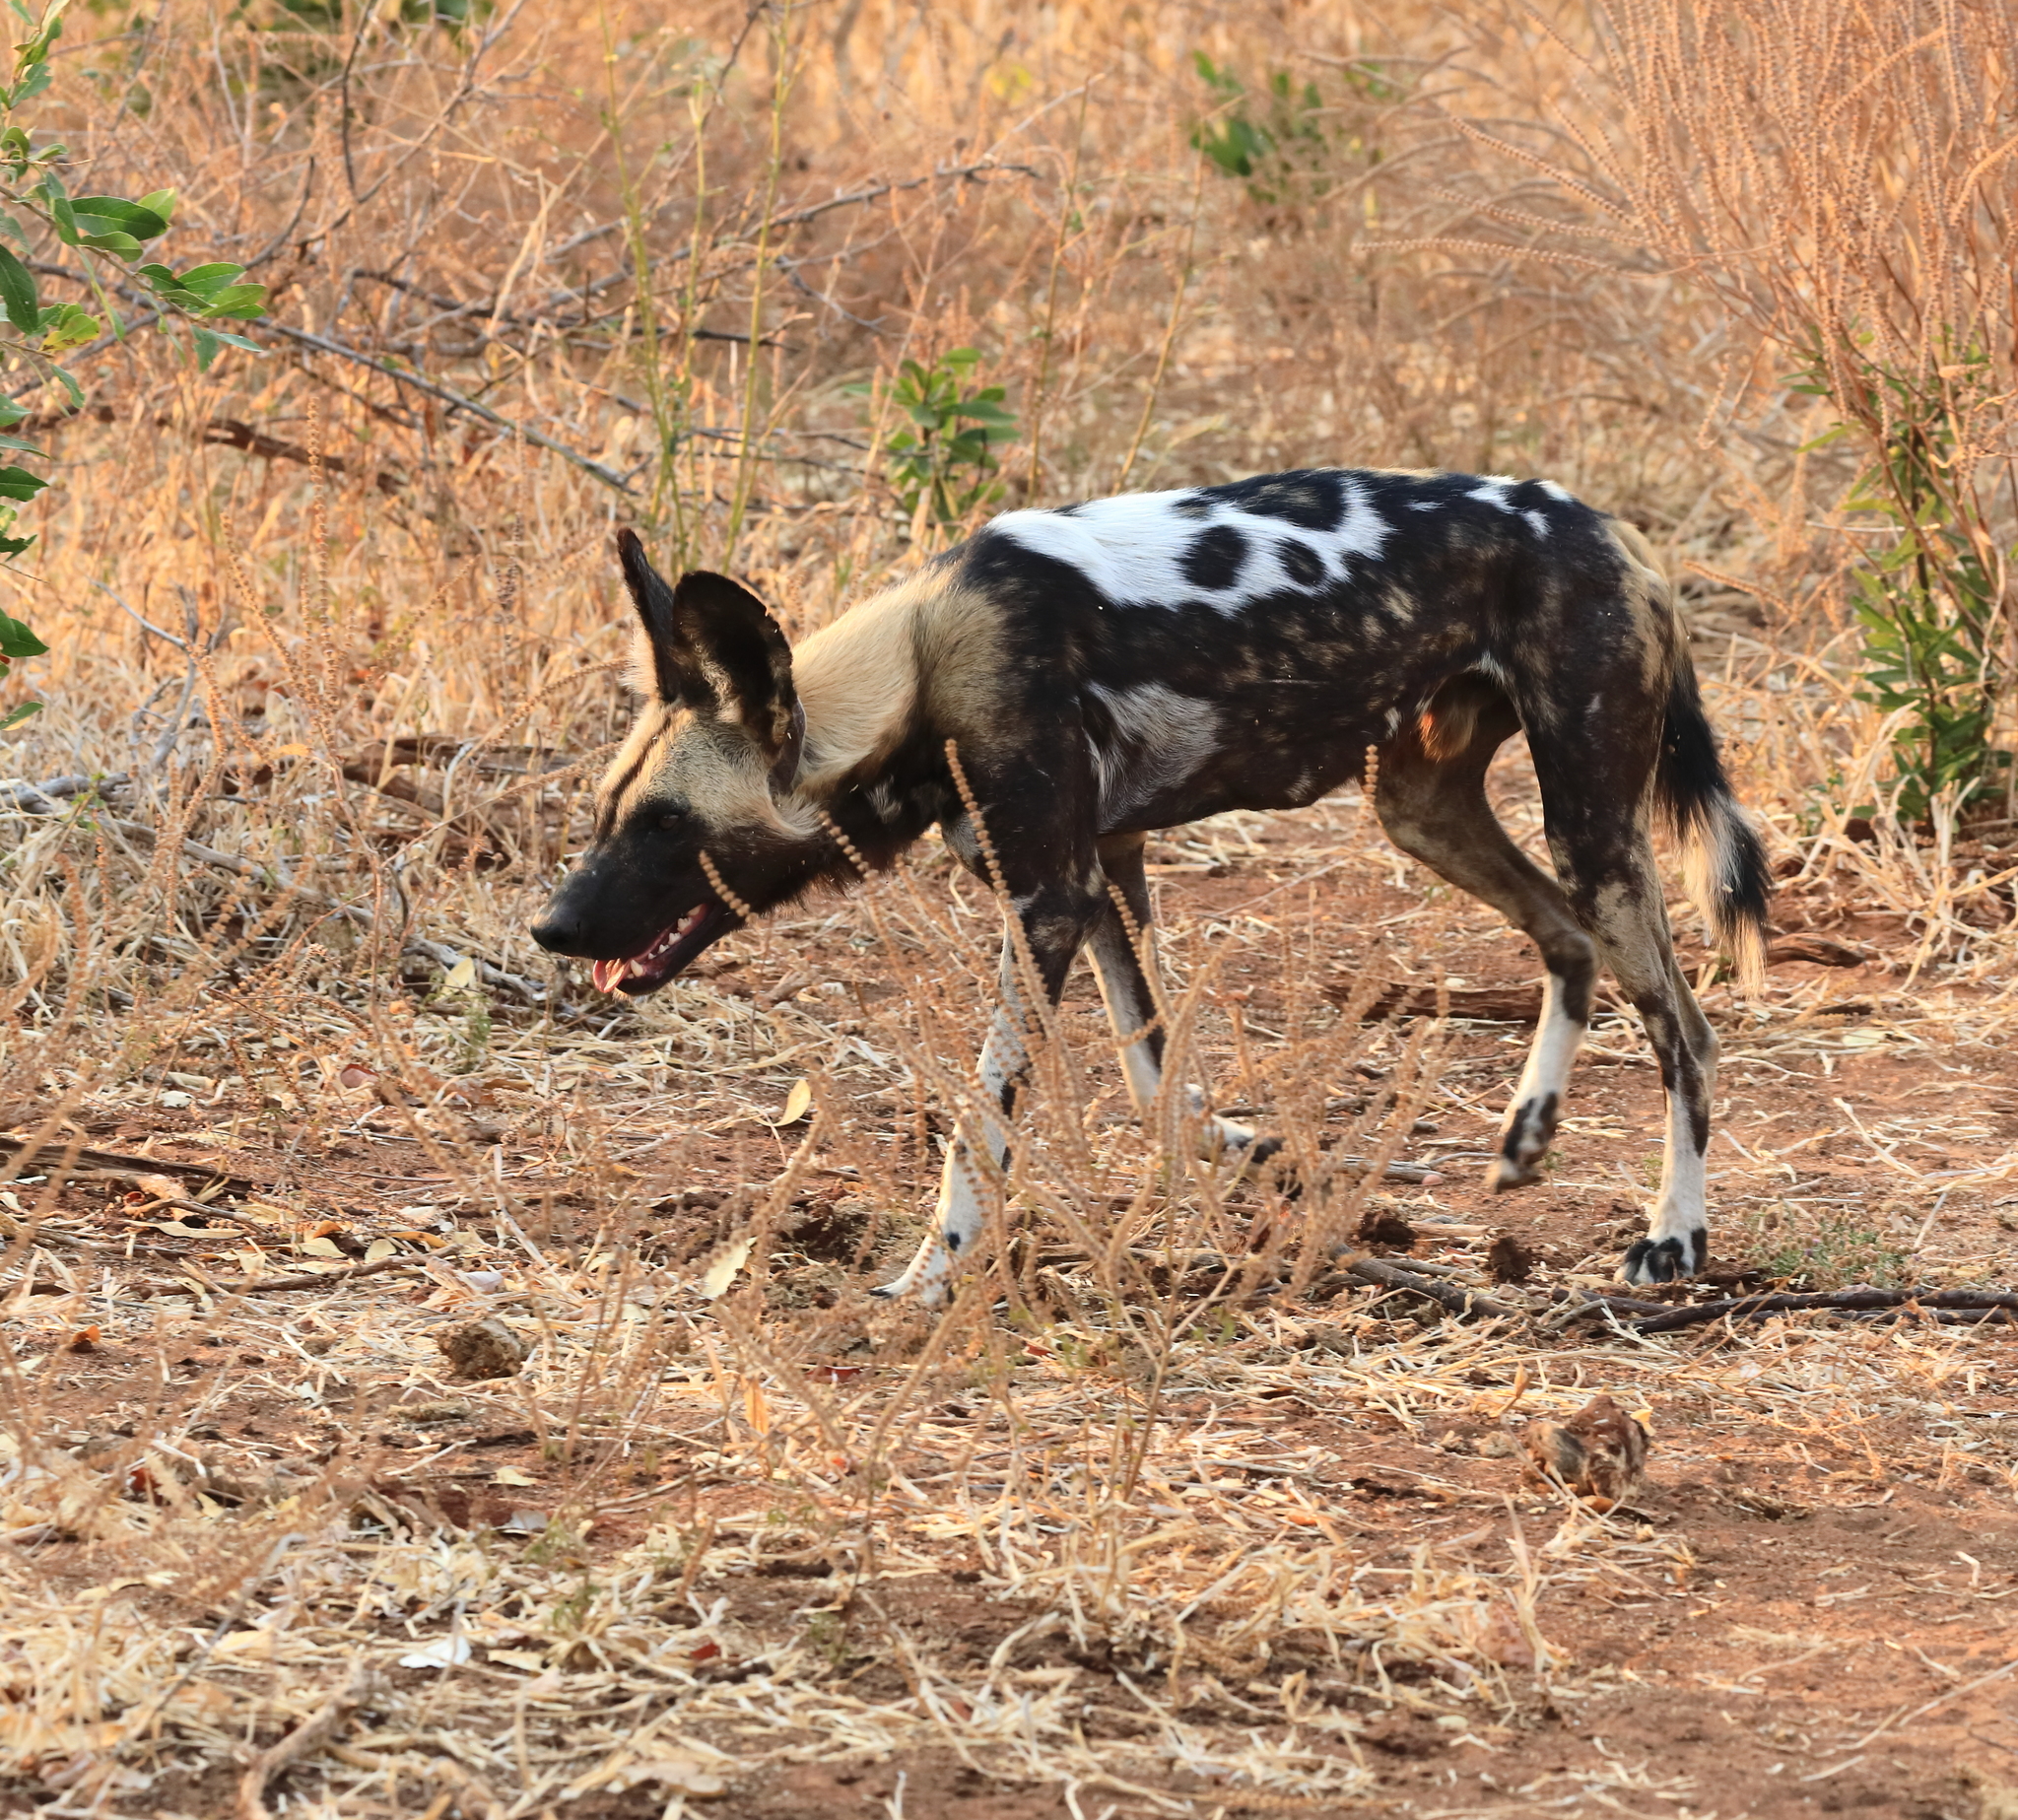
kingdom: Animalia
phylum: Chordata
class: Mammalia
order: Carnivora
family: Canidae
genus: Lycaon
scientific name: Lycaon pictus
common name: African wild dog
